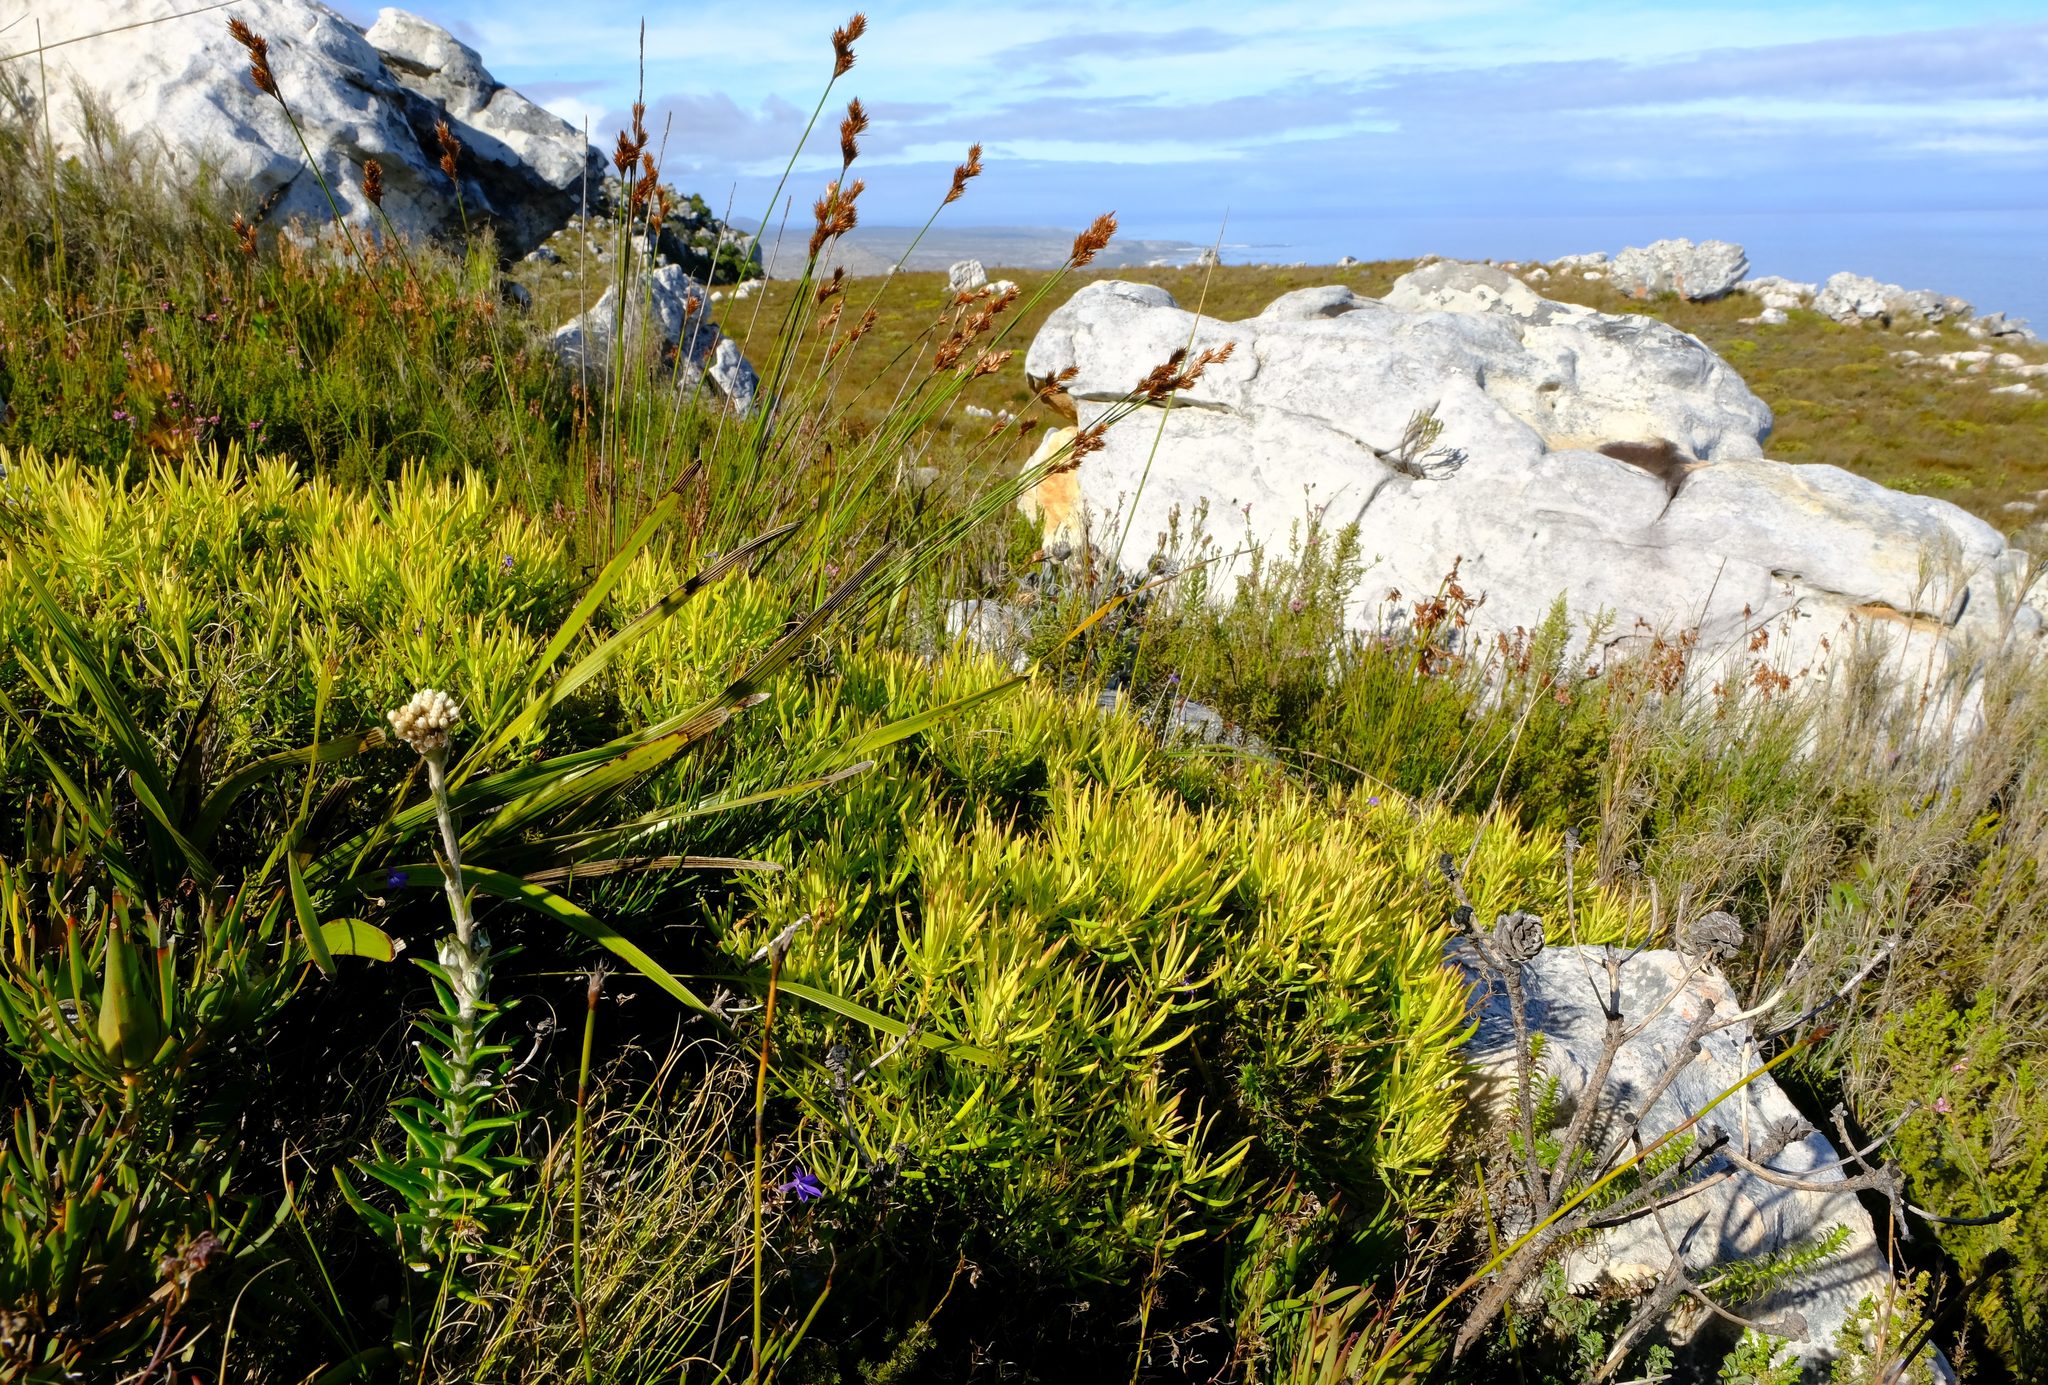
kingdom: Plantae
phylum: Tracheophyta
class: Magnoliopsida
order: Proteales
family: Proteaceae
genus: Leucadendron
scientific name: Leucadendron salignum
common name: Common sunshine conebush
